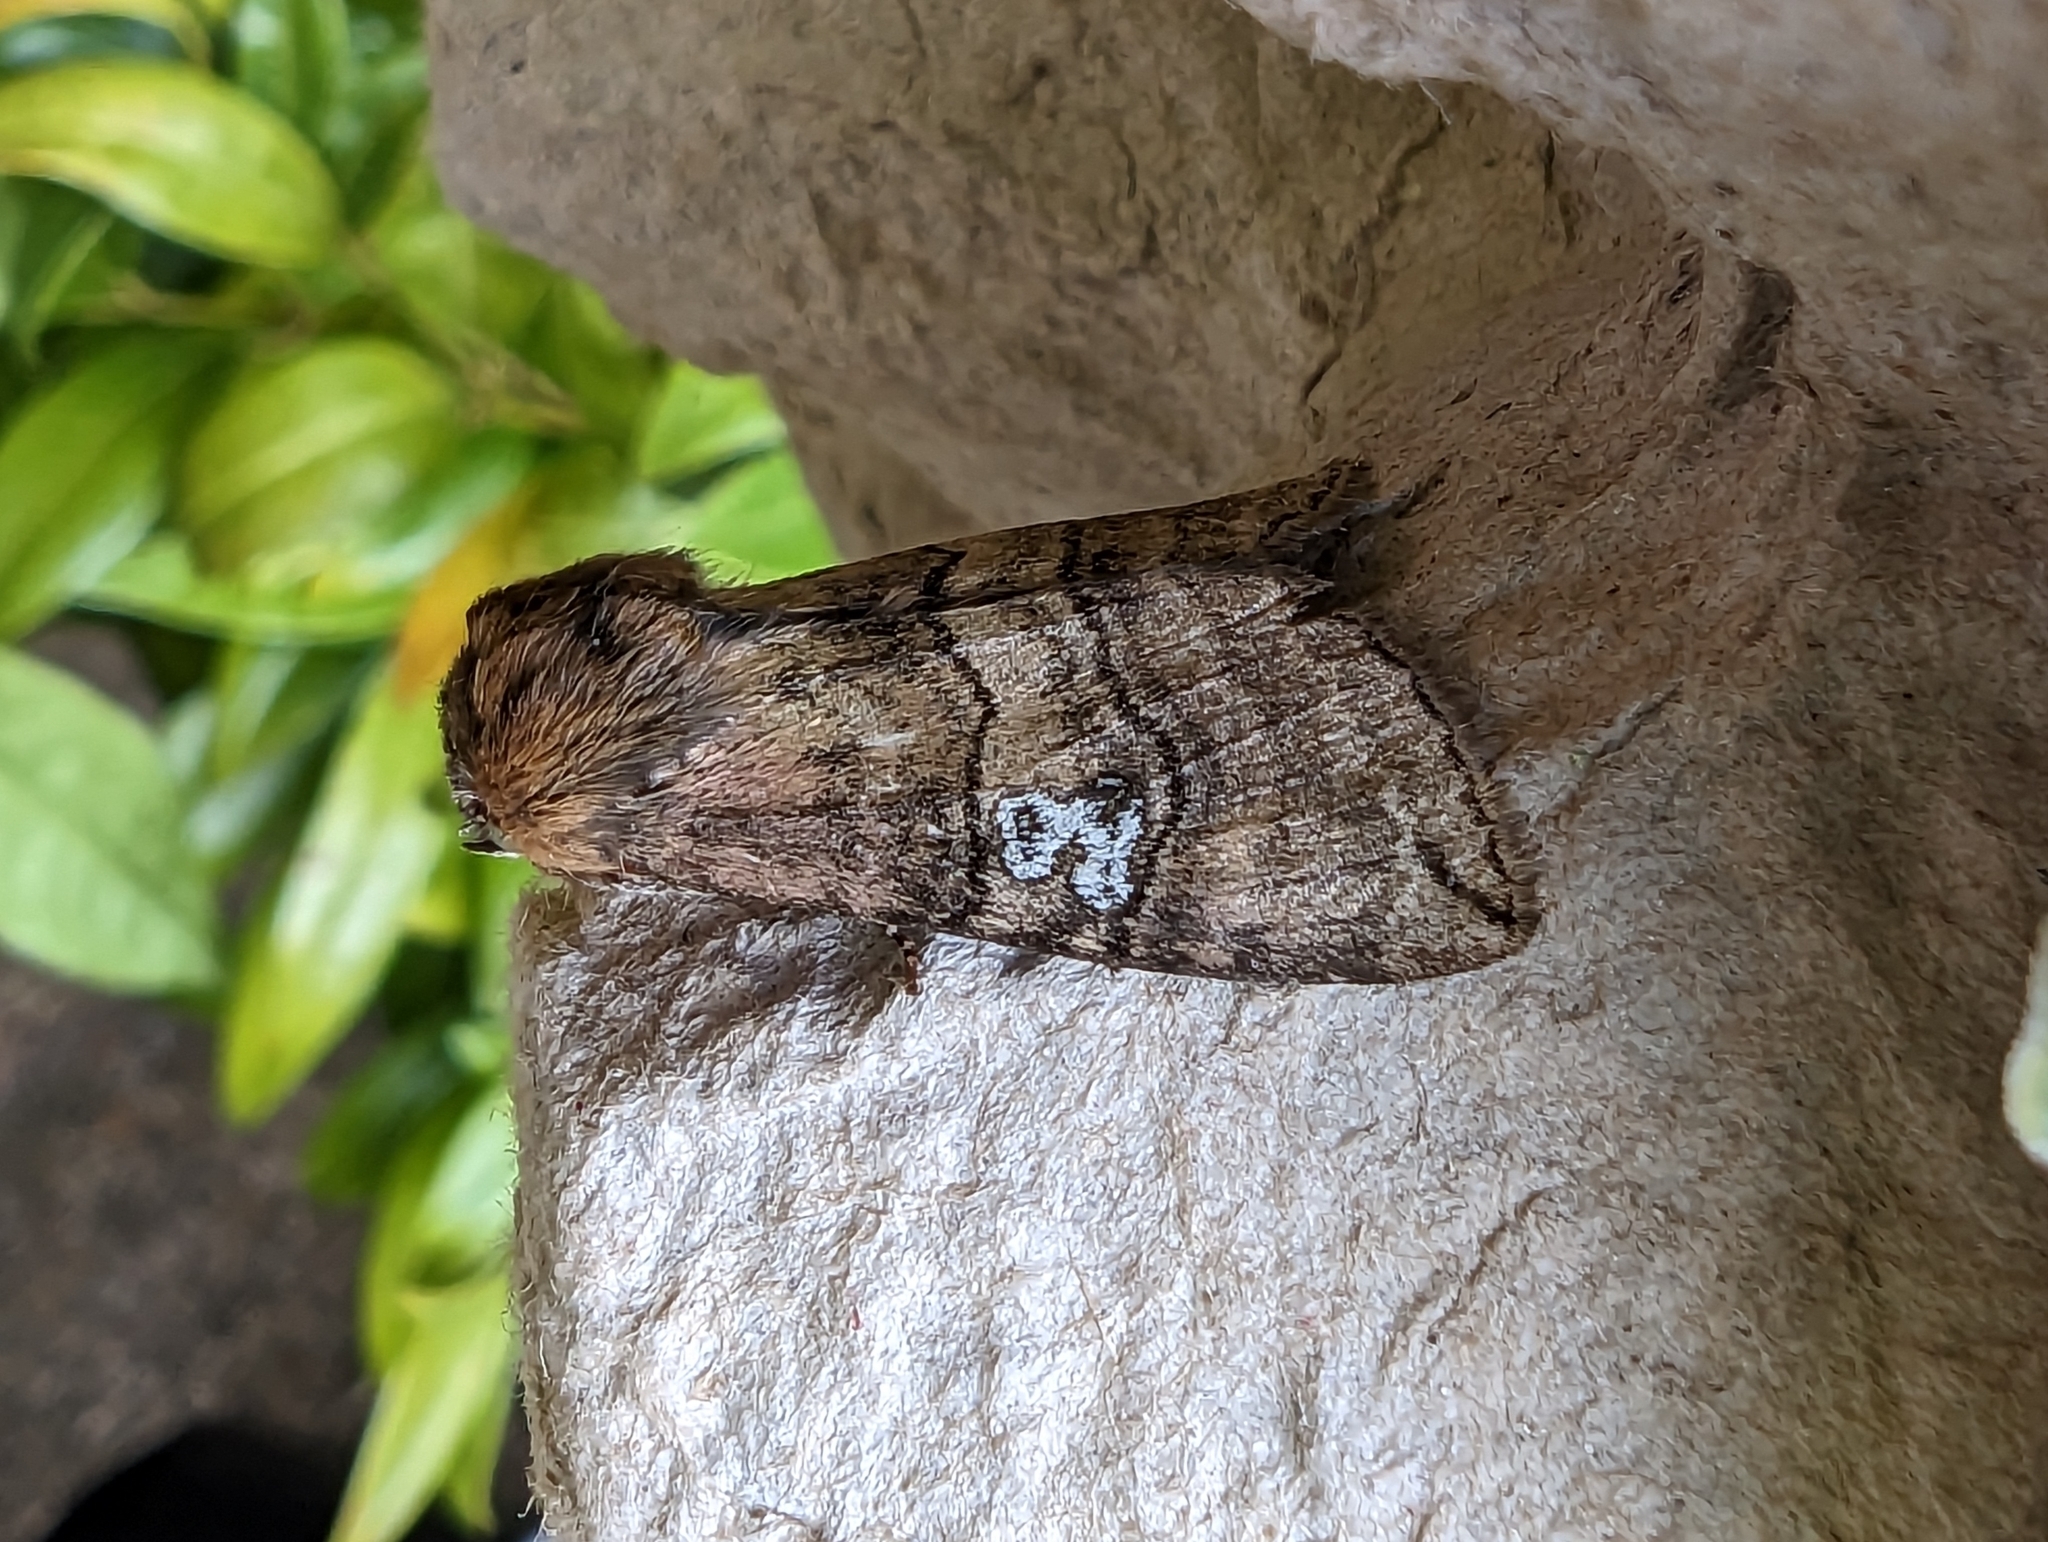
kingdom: Animalia
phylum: Arthropoda
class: Insecta
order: Lepidoptera
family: Drepanidae
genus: Tethea
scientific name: Tethea ocularis
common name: Figure of eighty
